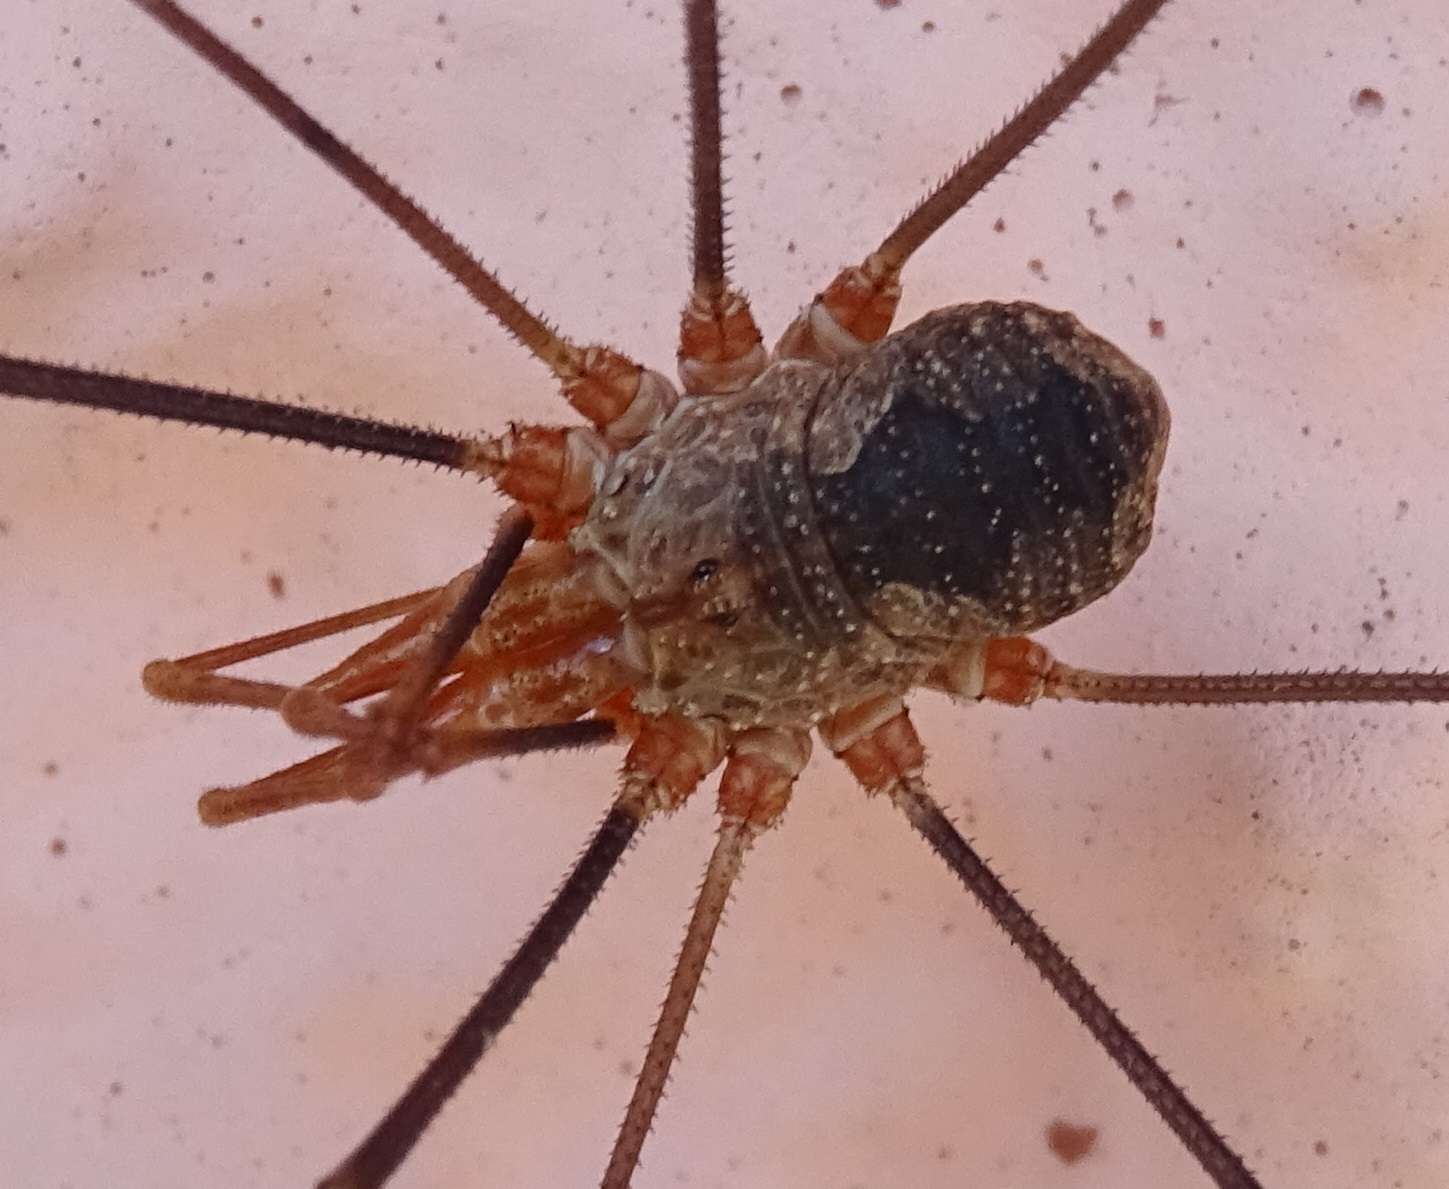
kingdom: Animalia
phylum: Arthropoda
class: Arachnida
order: Opiliones
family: Phalangiidae
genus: Phalangium
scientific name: Phalangium opilio
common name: Daddy longleg
